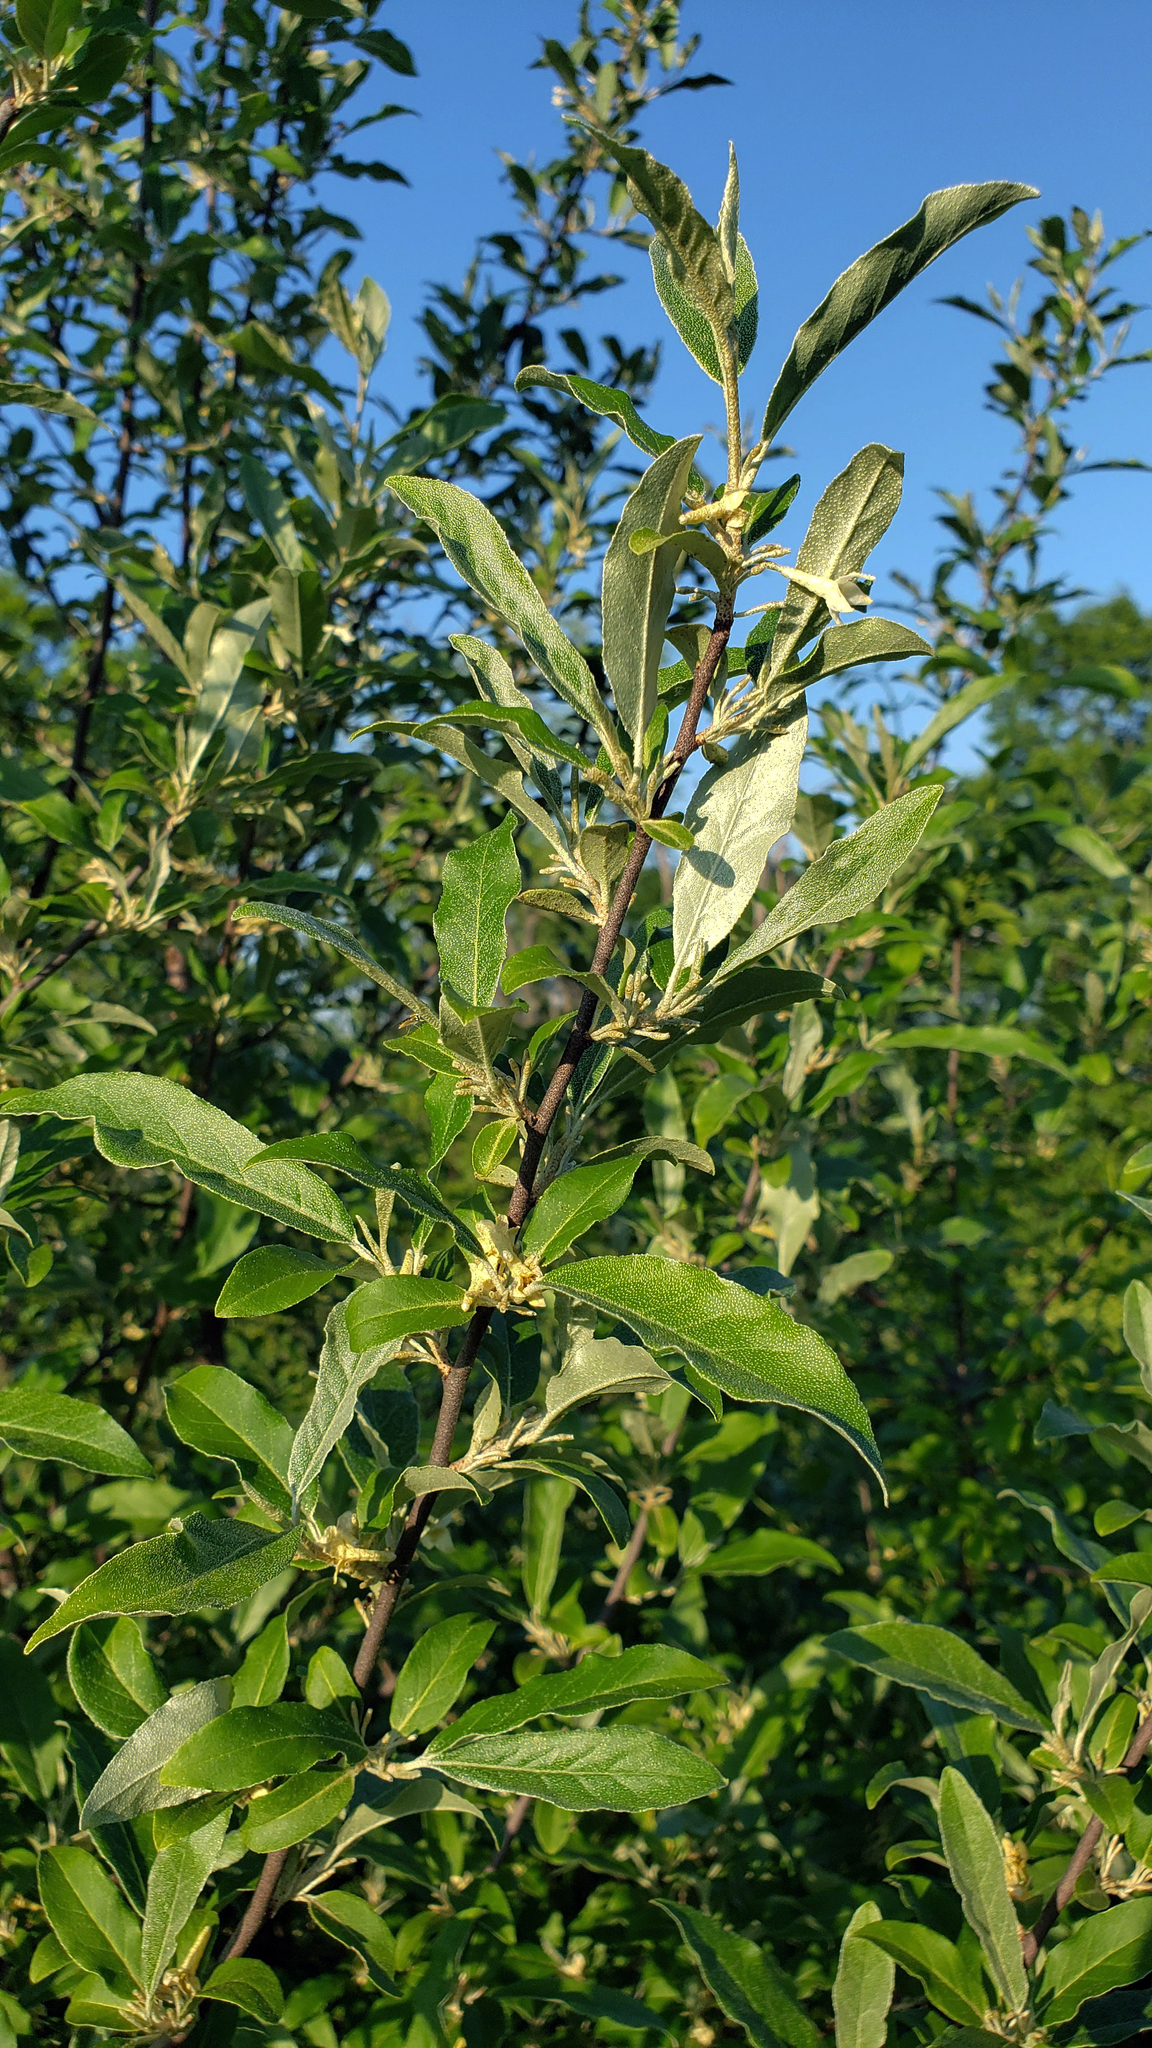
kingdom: Plantae
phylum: Tracheophyta
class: Magnoliopsida
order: Rosales
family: Elaeagnaceae
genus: Elaeagnus
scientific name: Elaeagnus umbellata
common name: Autumn olive
